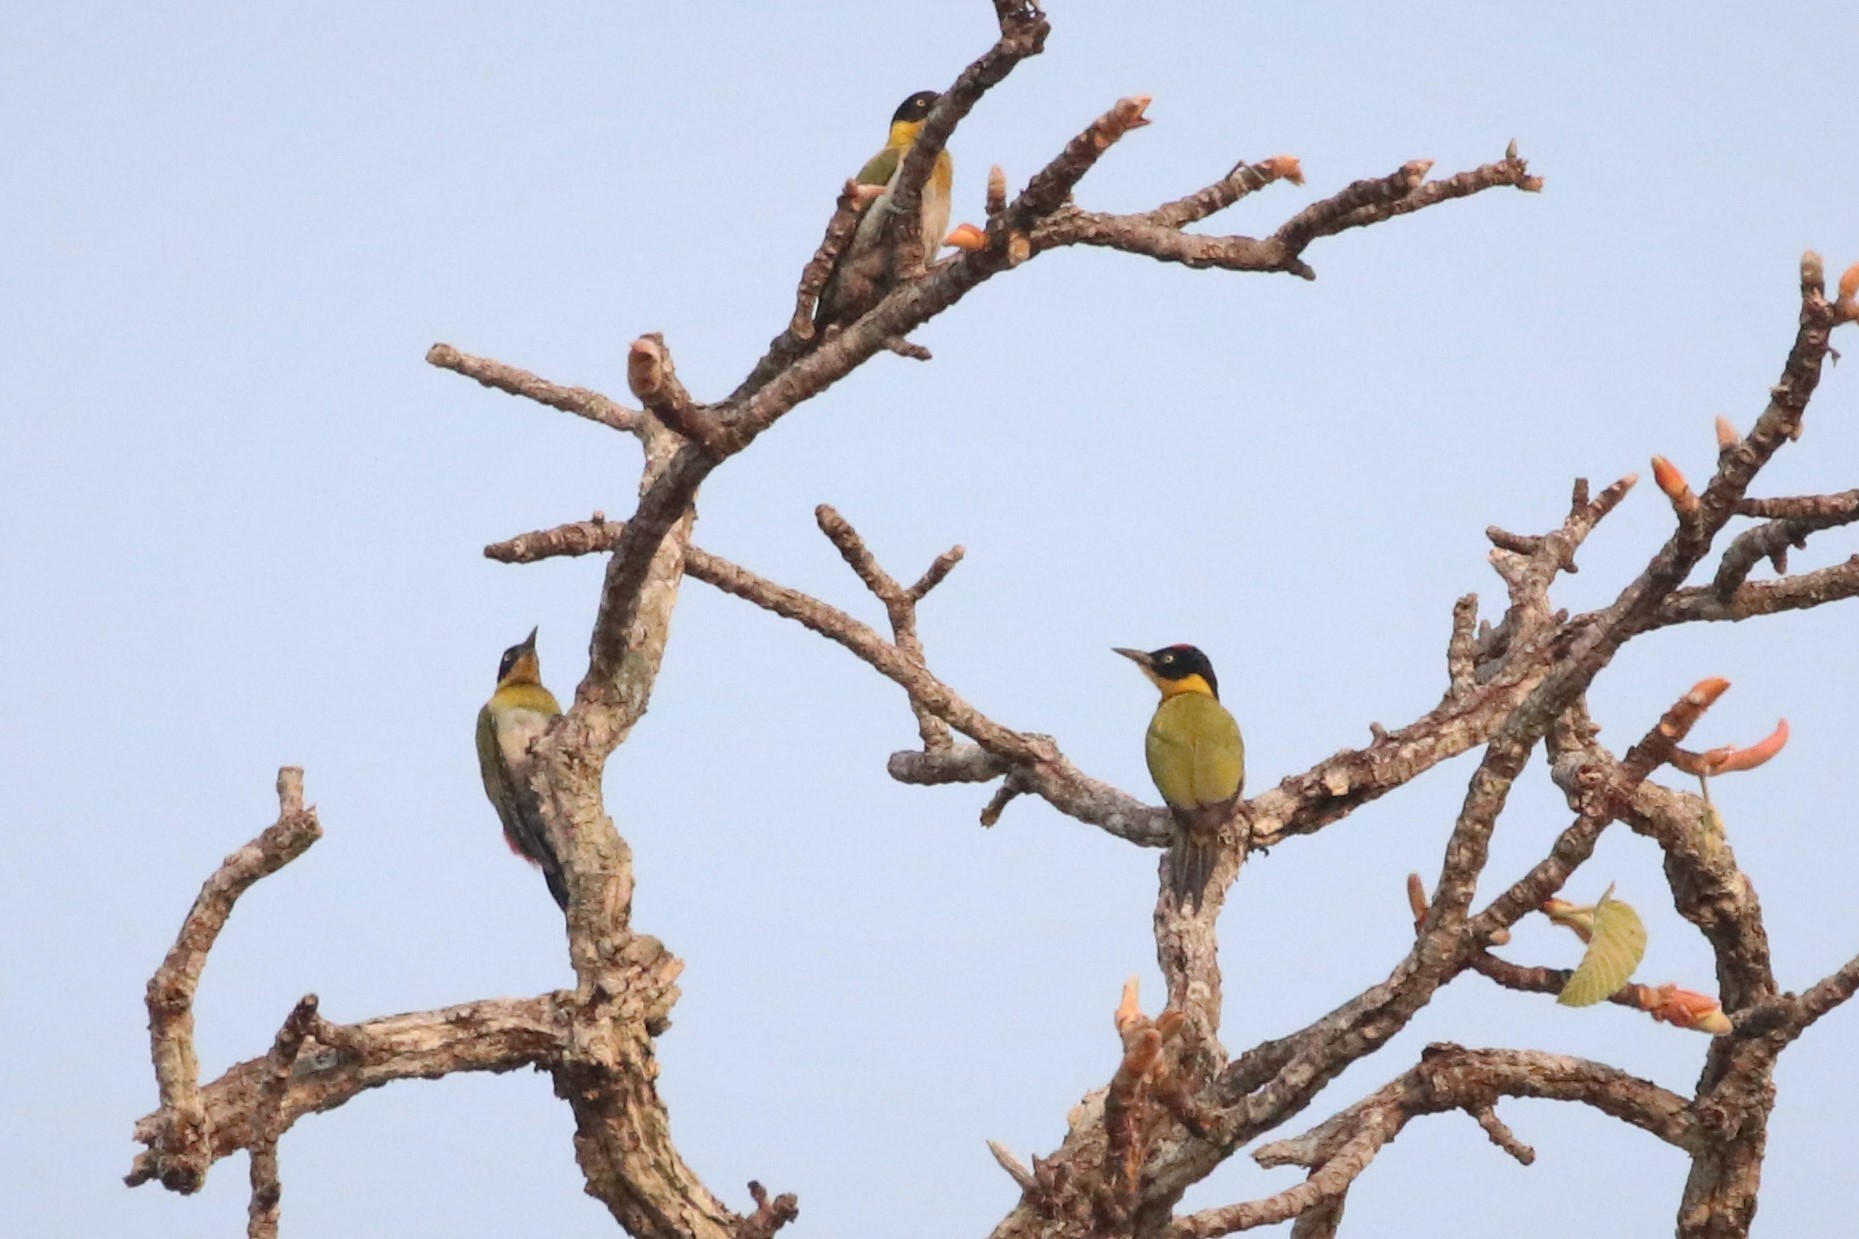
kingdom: Animalia
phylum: Chordata
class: Aves
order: Piciformes
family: Picidae
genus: Picus
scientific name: Picus erythropygius
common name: Black-headed woodpecker
